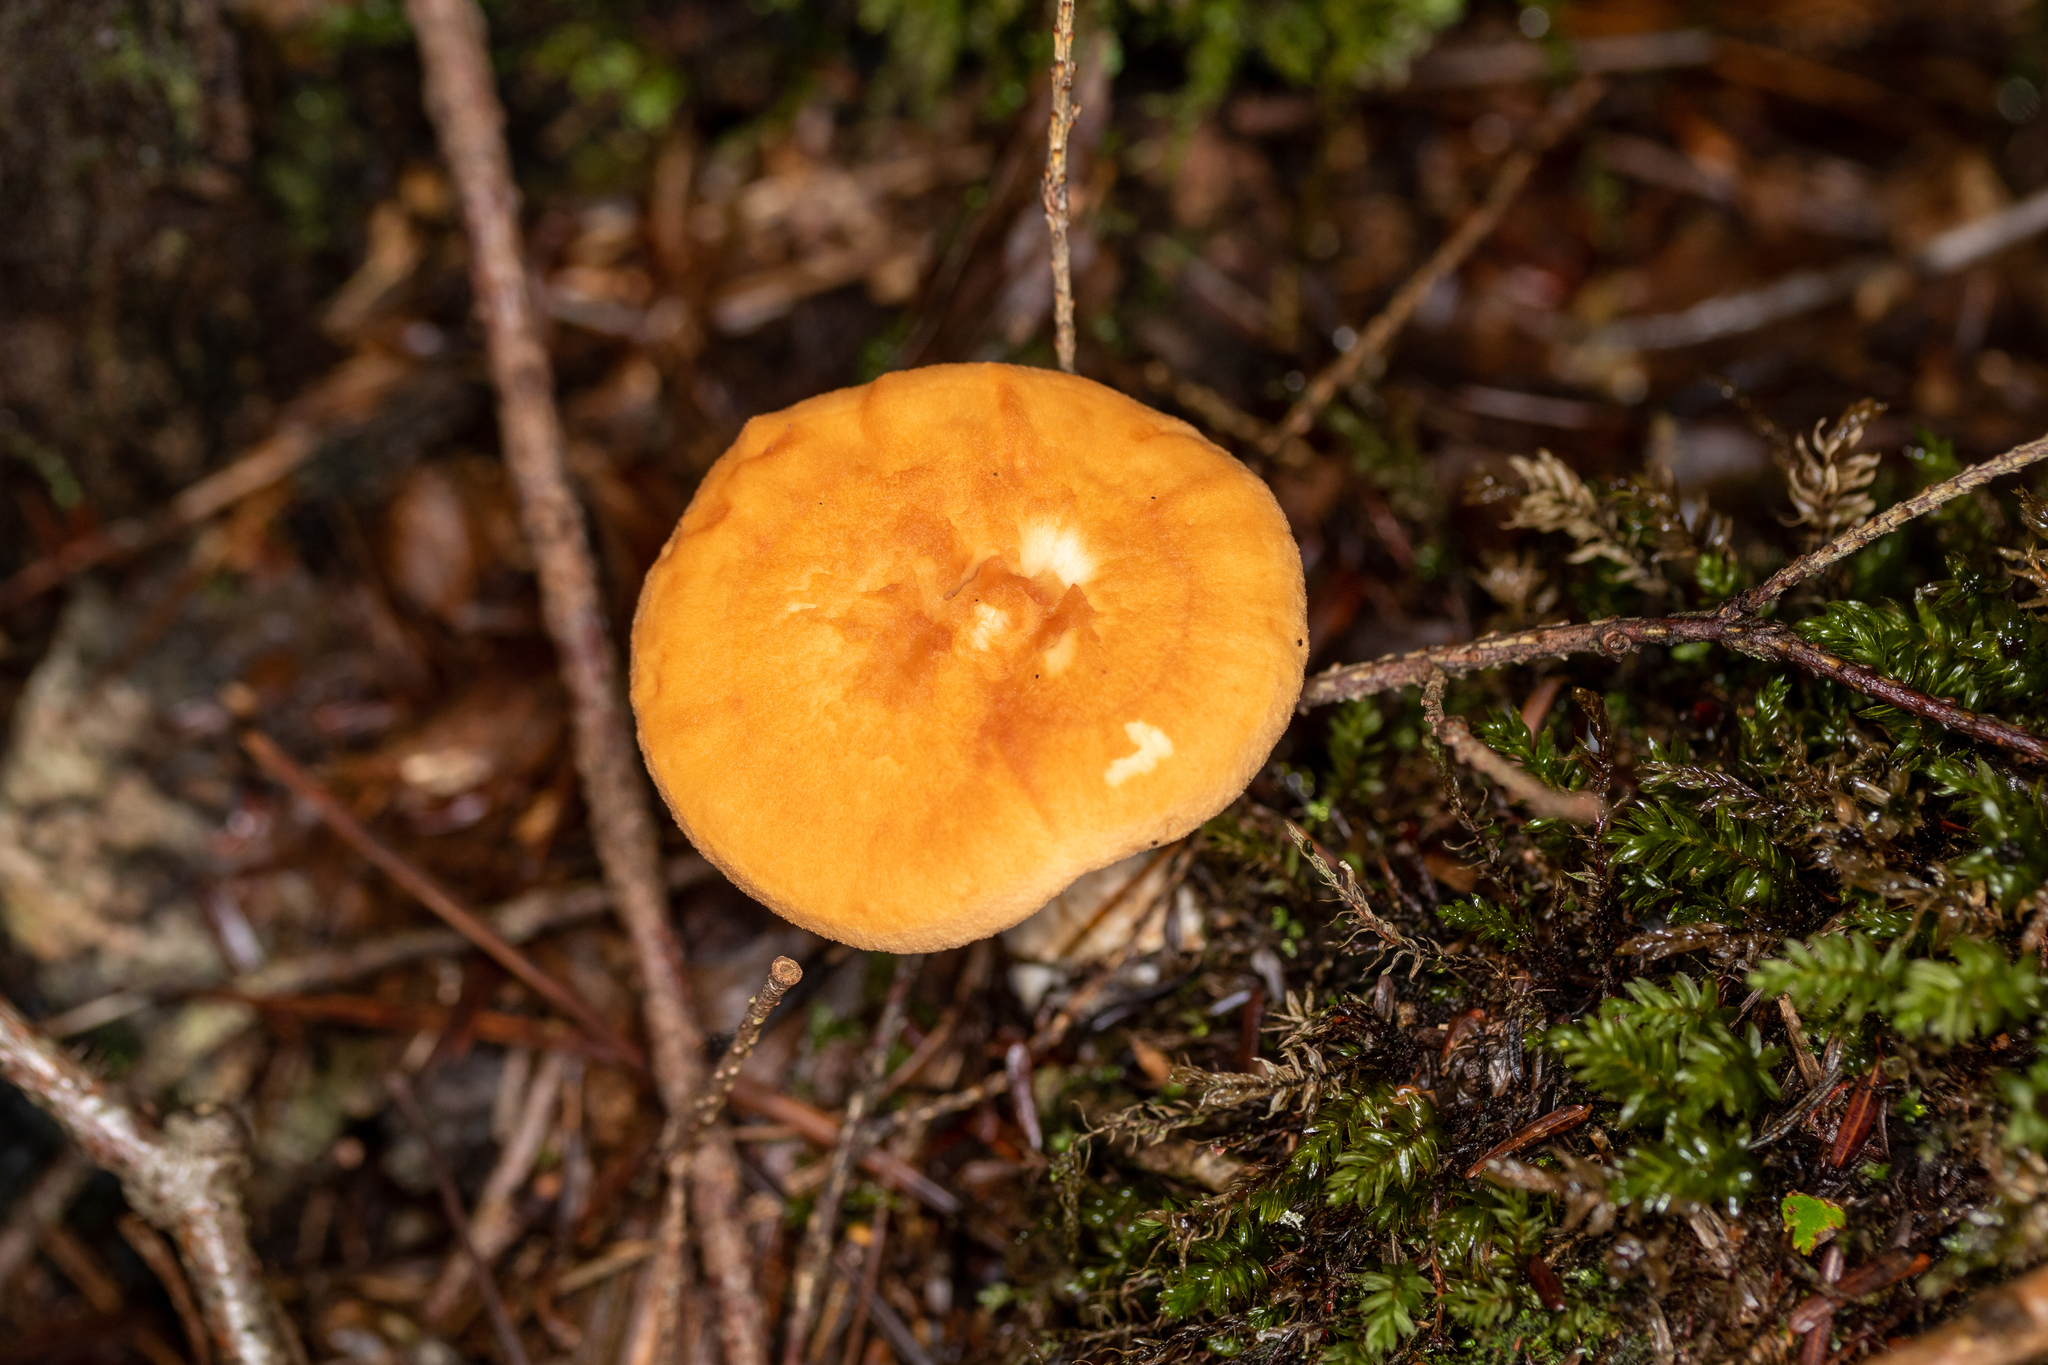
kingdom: Fungi
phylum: Basidiomycota
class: Agaricomycetes
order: Cantharellales
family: Hydnaceae
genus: Hydnum
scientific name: Hydnum umbilicatum
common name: Umbilicate hedgehog
